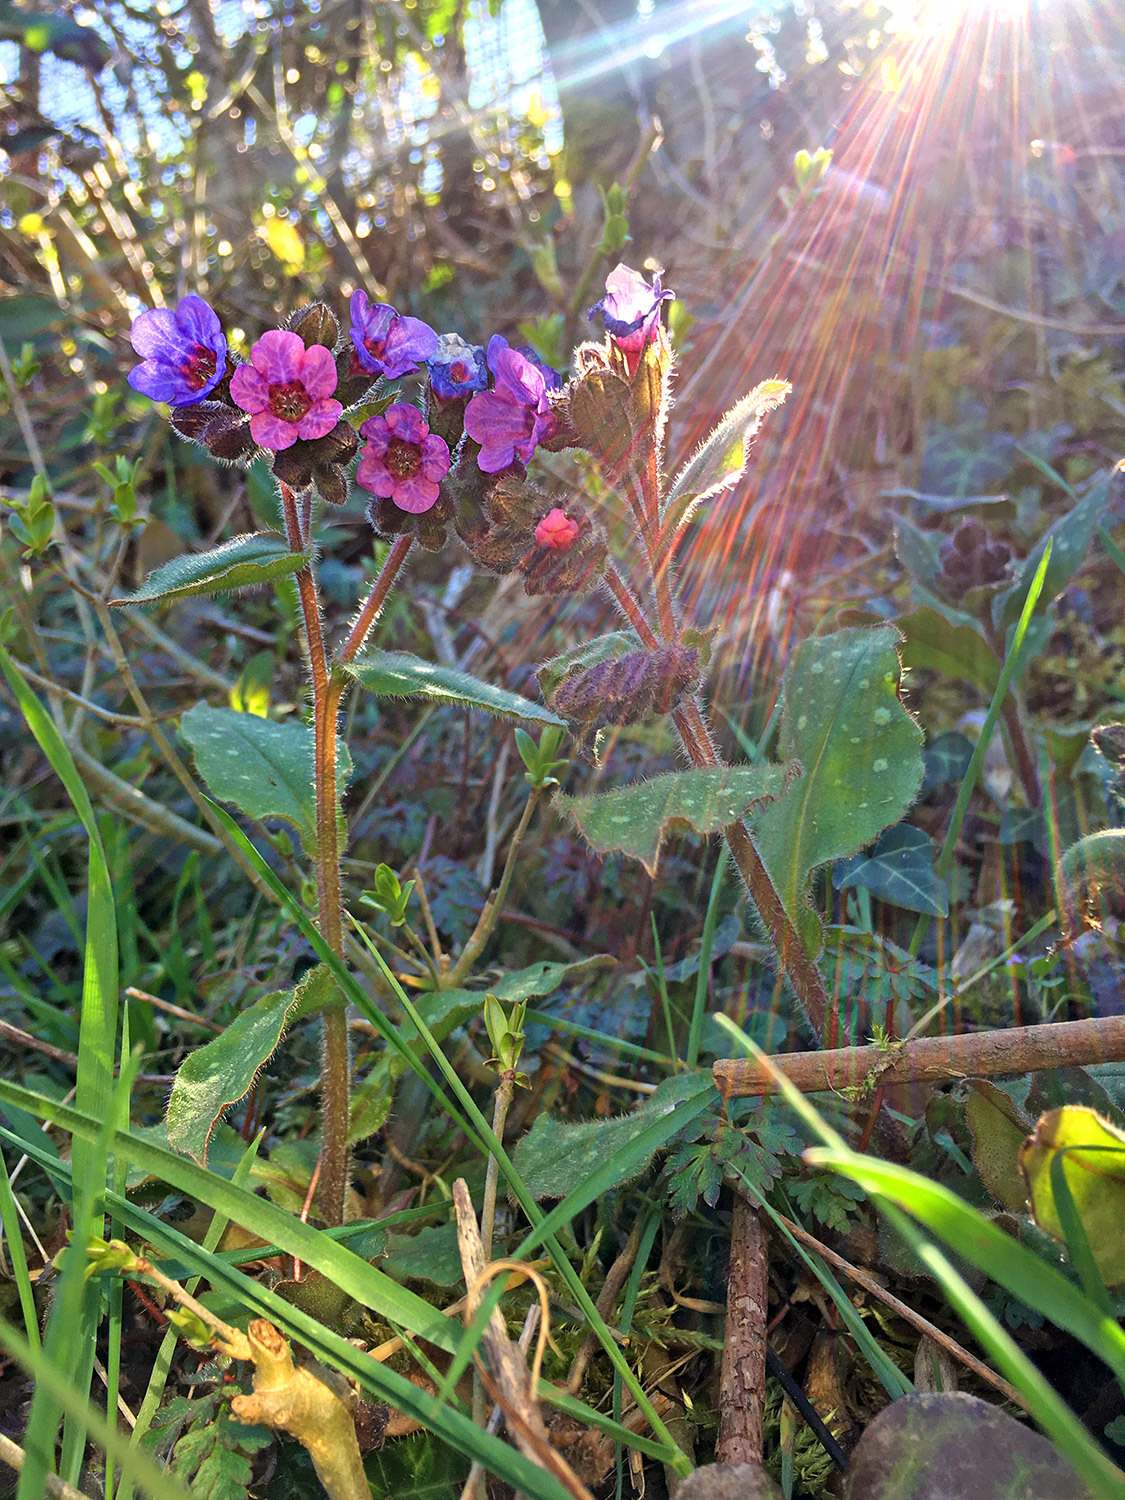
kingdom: Plantae
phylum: Tracheophyta
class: Magnoliopsida
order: Boraginales
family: Boraginaceae
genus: Pulmonaria
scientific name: Pulmonaria officinalis
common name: Lungwort
